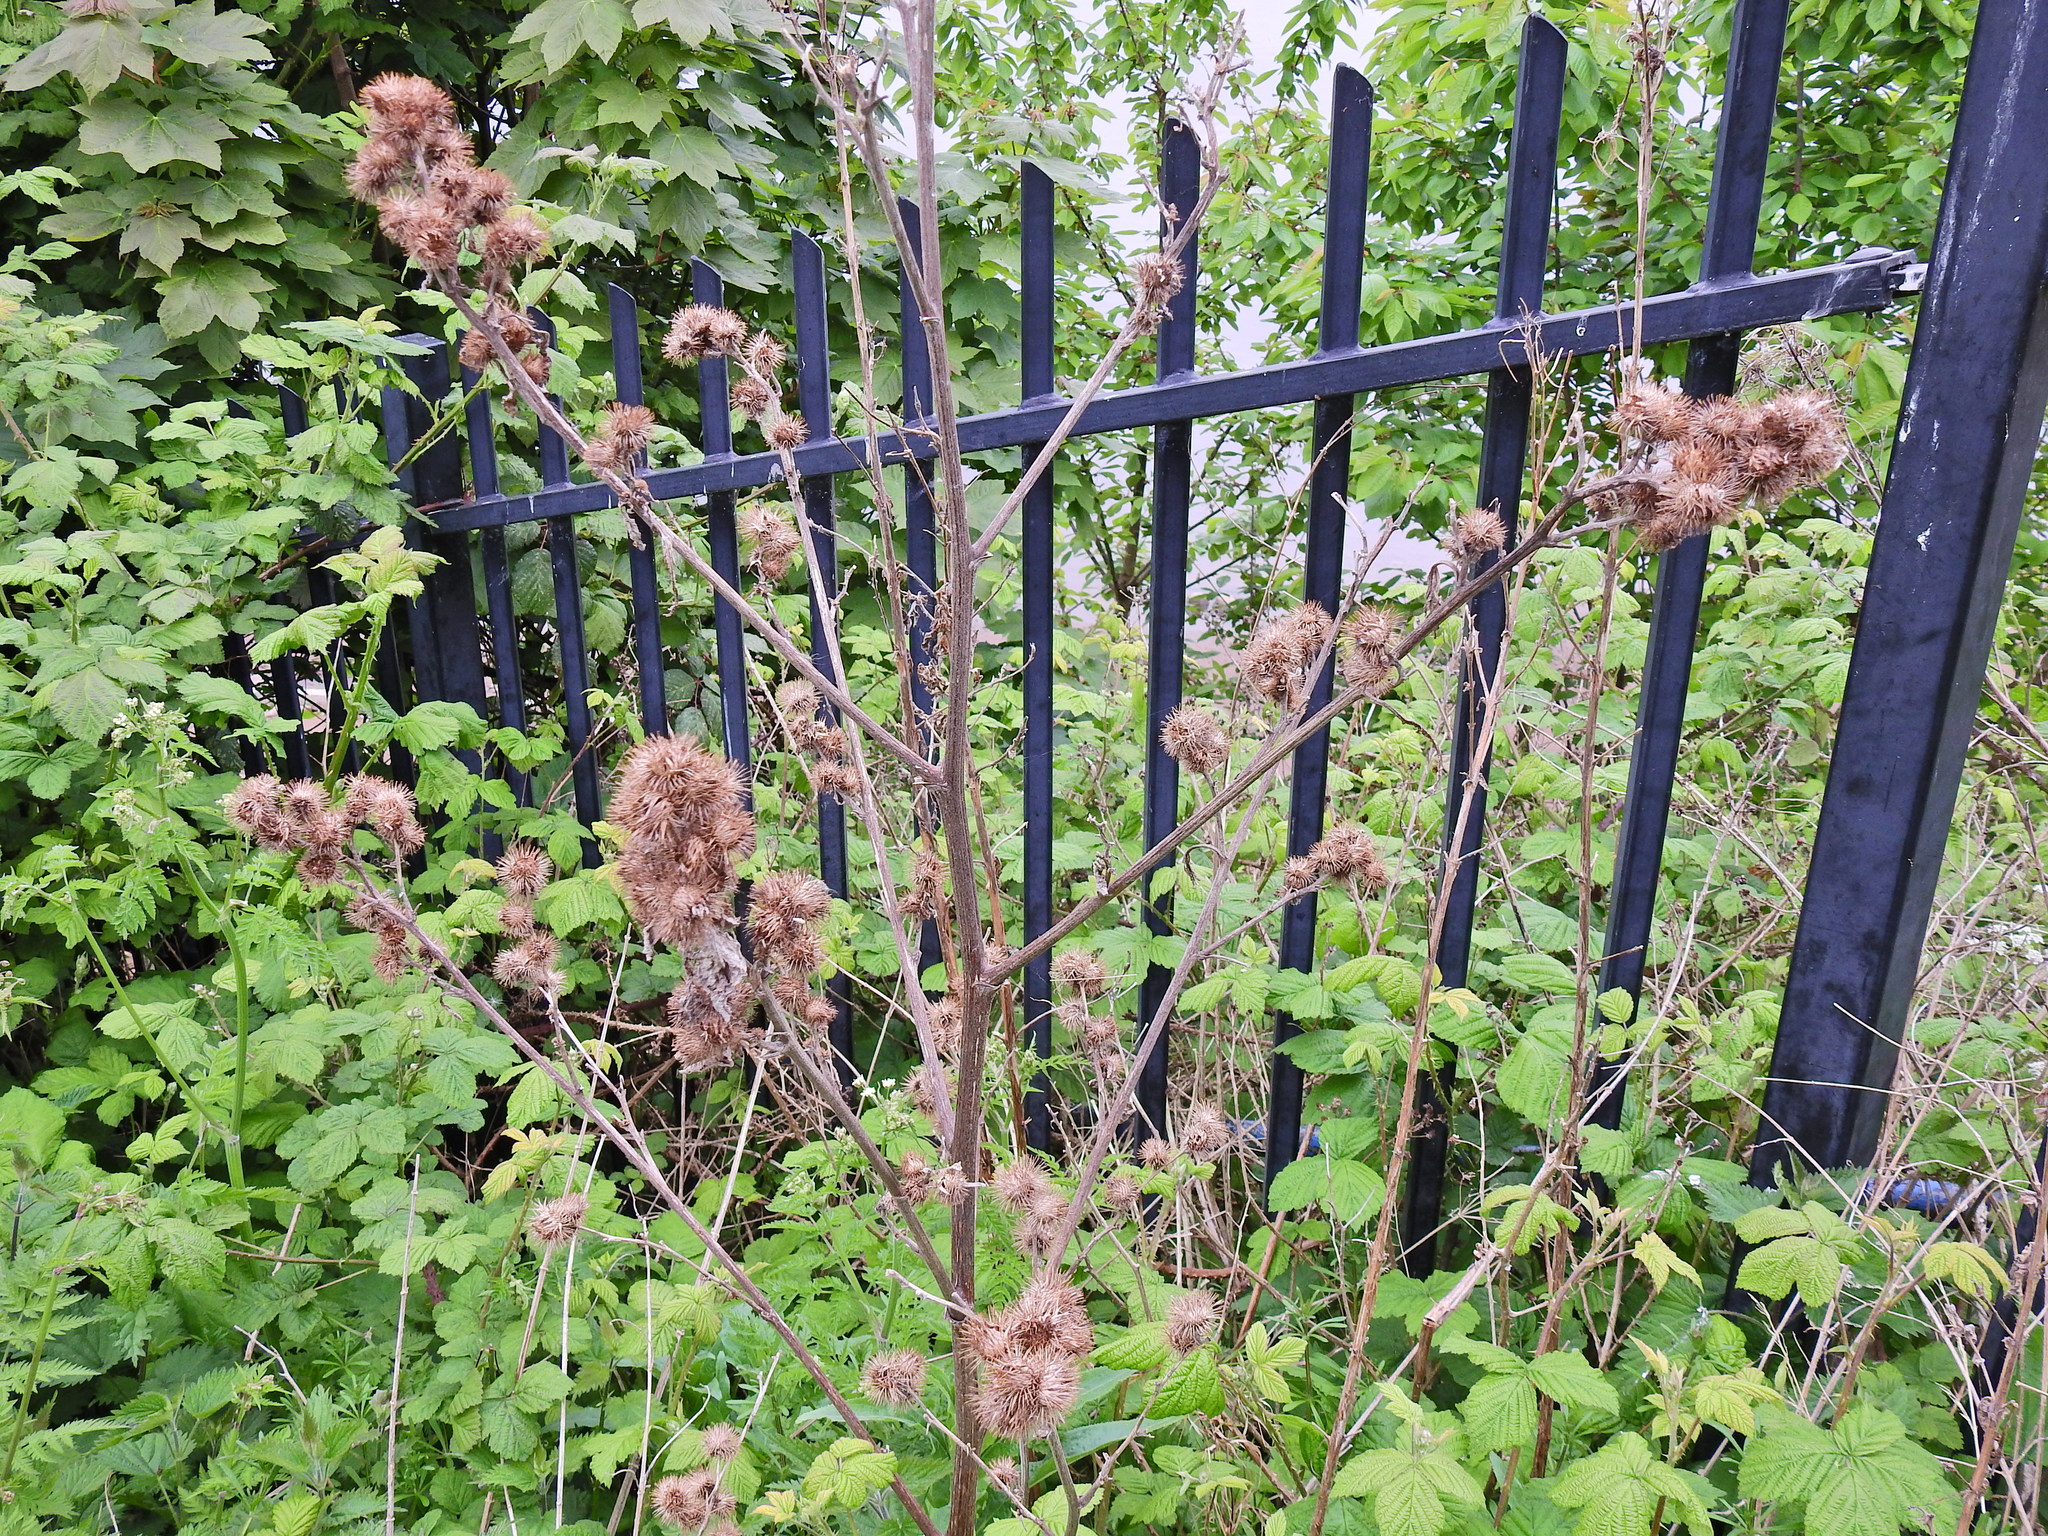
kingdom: Plantae
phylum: Tracheophyta
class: Magnoliopsida
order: Asterales
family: Asteraceae
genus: Arctium
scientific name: Arctium minus
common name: Lesser burdock
